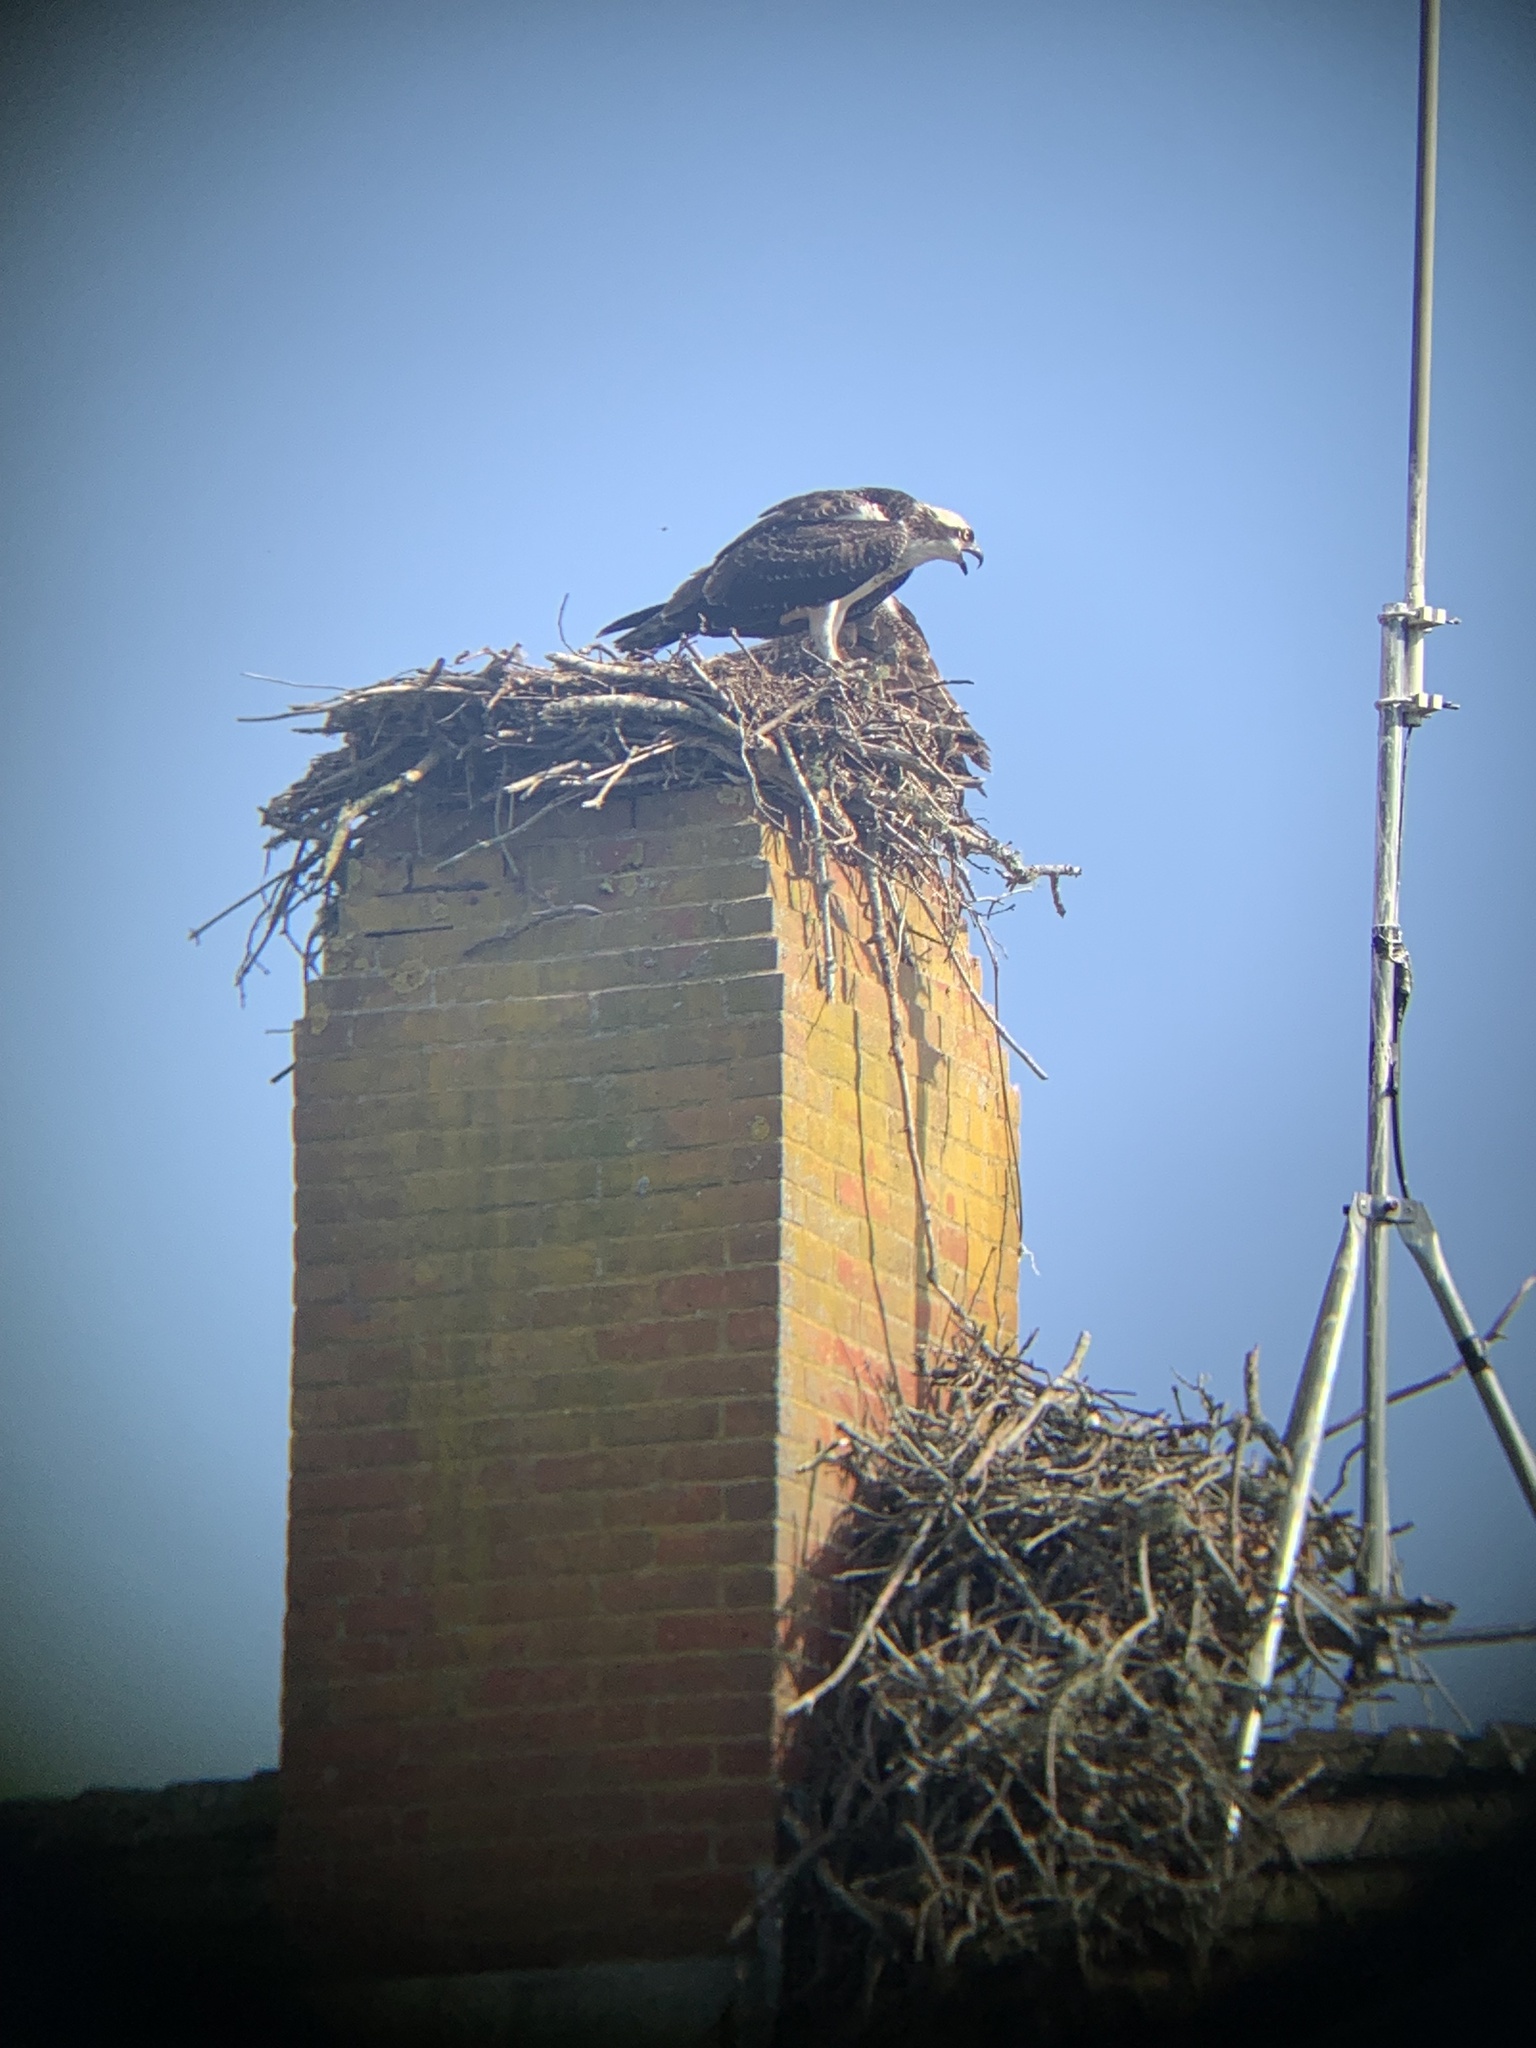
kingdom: Animalia
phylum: Chordata
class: Aves
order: Accipitriformes
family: Pandionidae
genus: Pandion
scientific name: Pandion haliaetus
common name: Osprey
